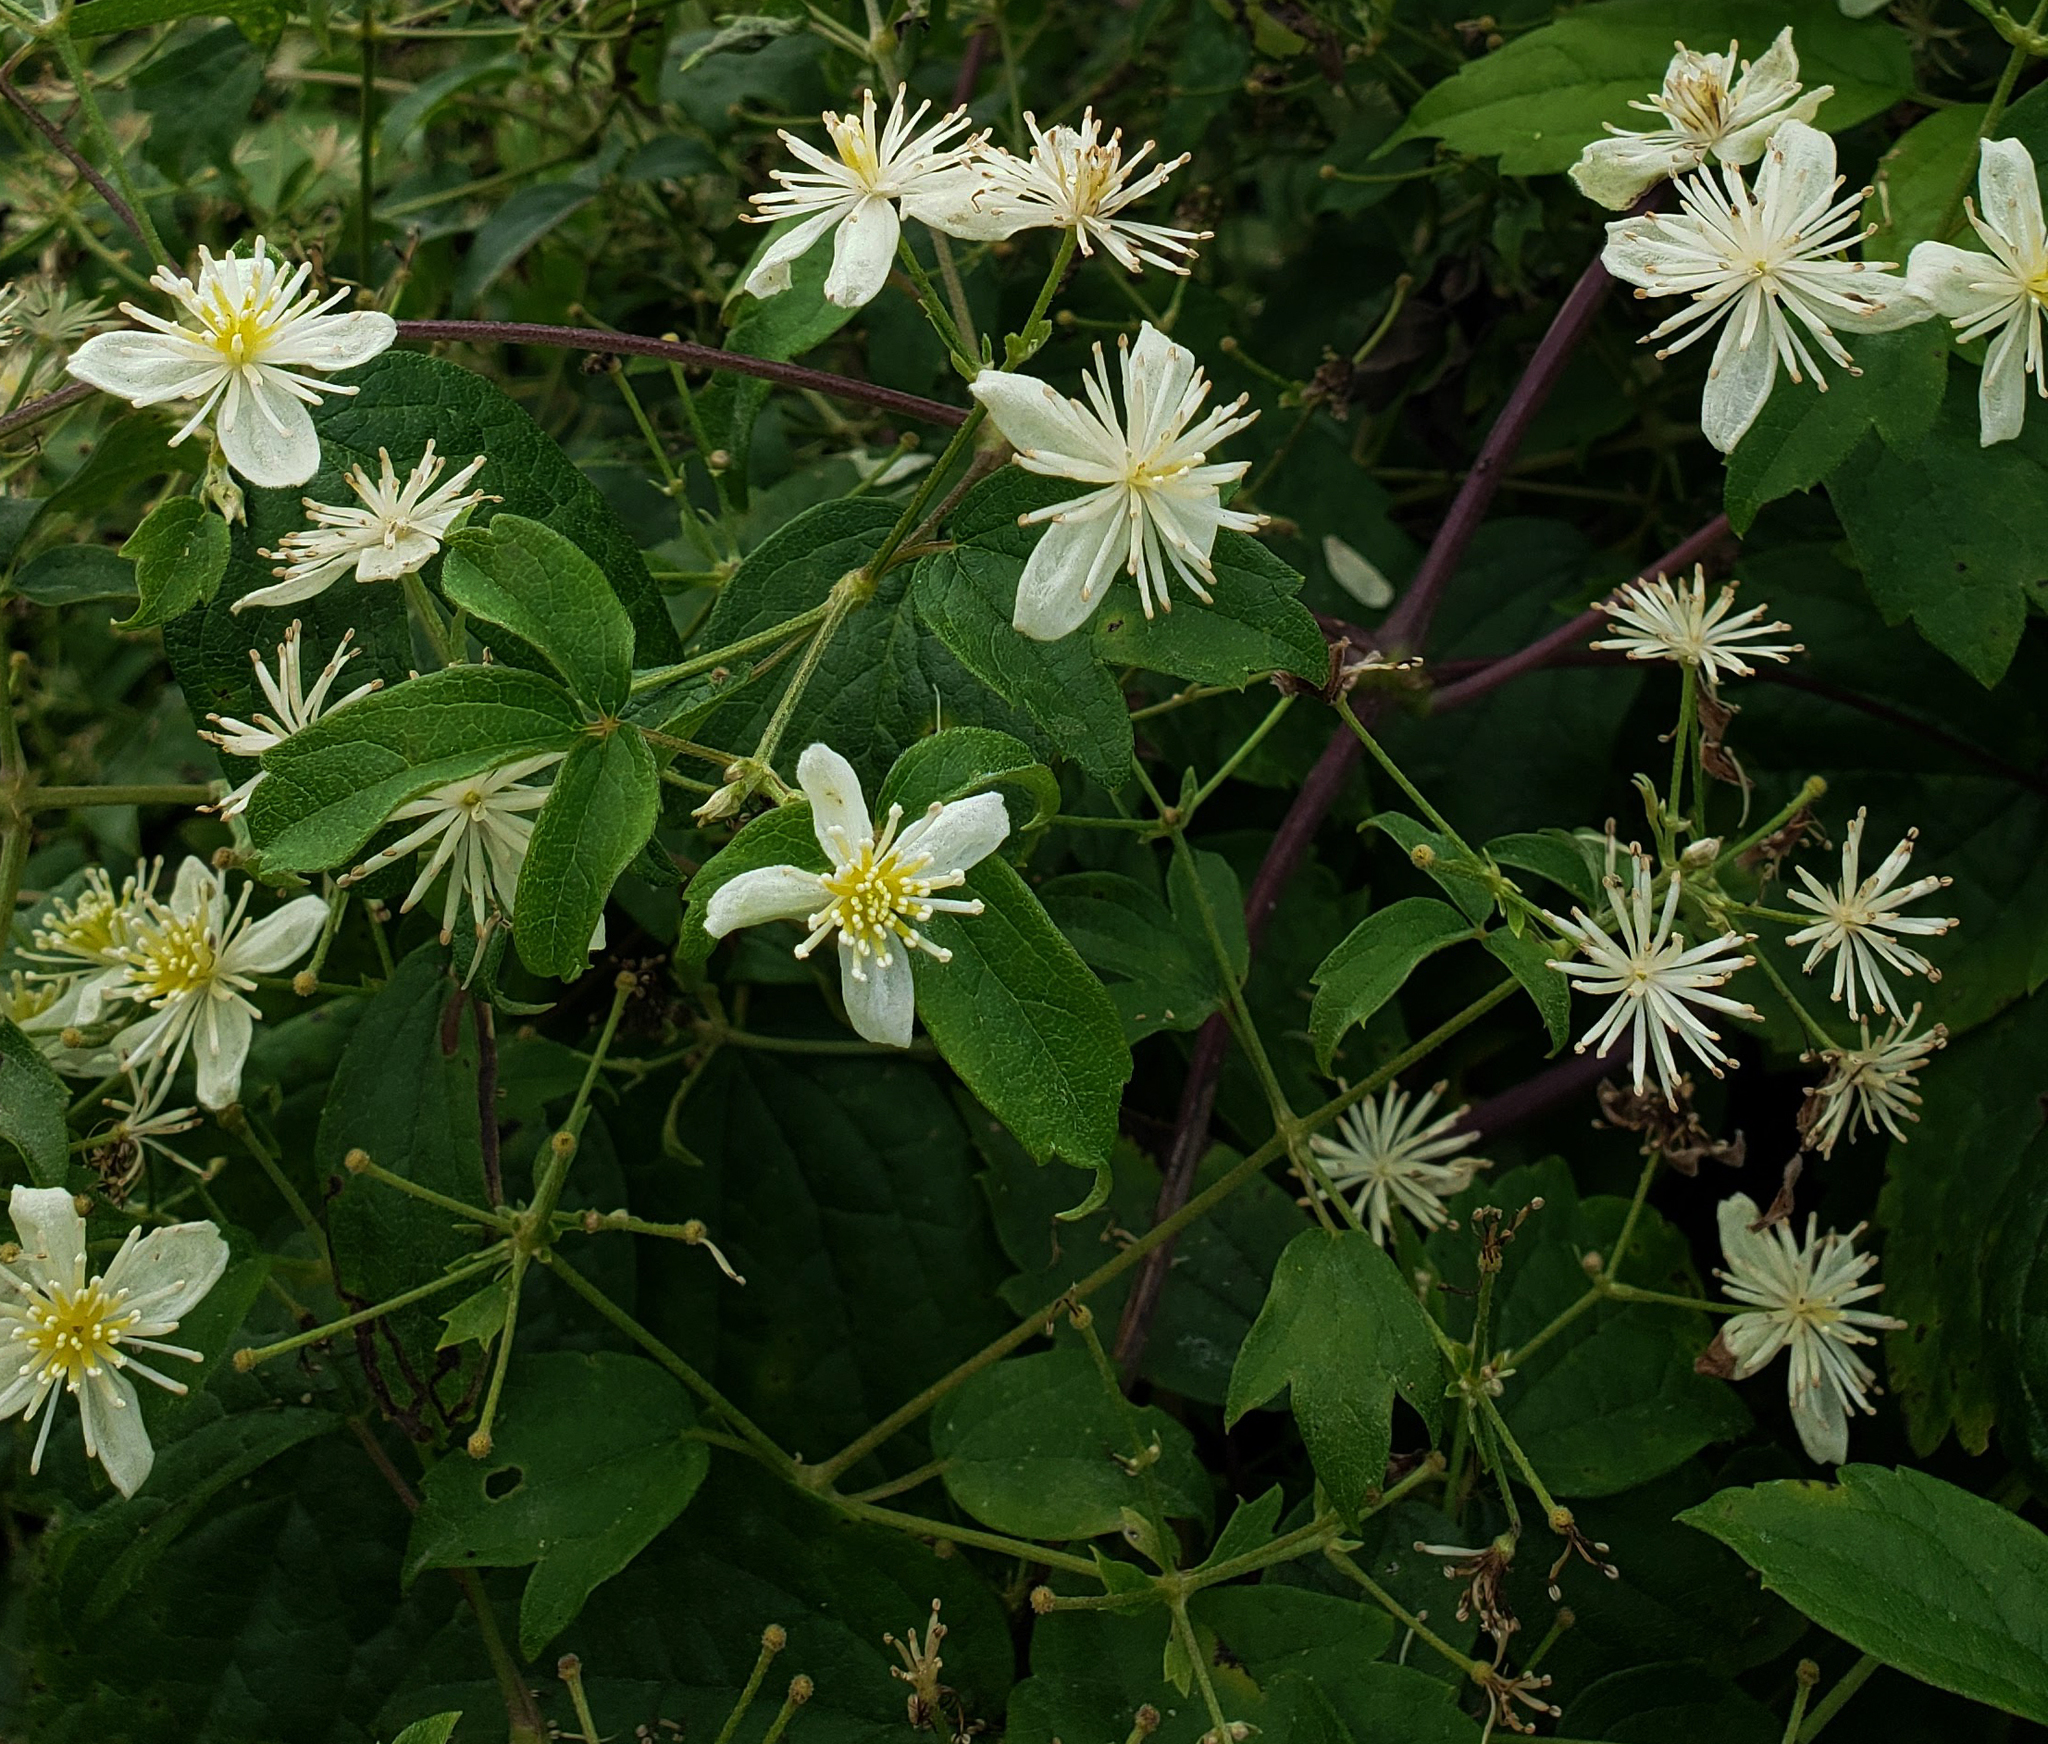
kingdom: Plantae
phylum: Tracheophyta
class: Magnoliopsida
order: Ranunculales
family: Ranunculaceae
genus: Clematis
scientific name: Clematis virginiana
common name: Virgin's-bower
